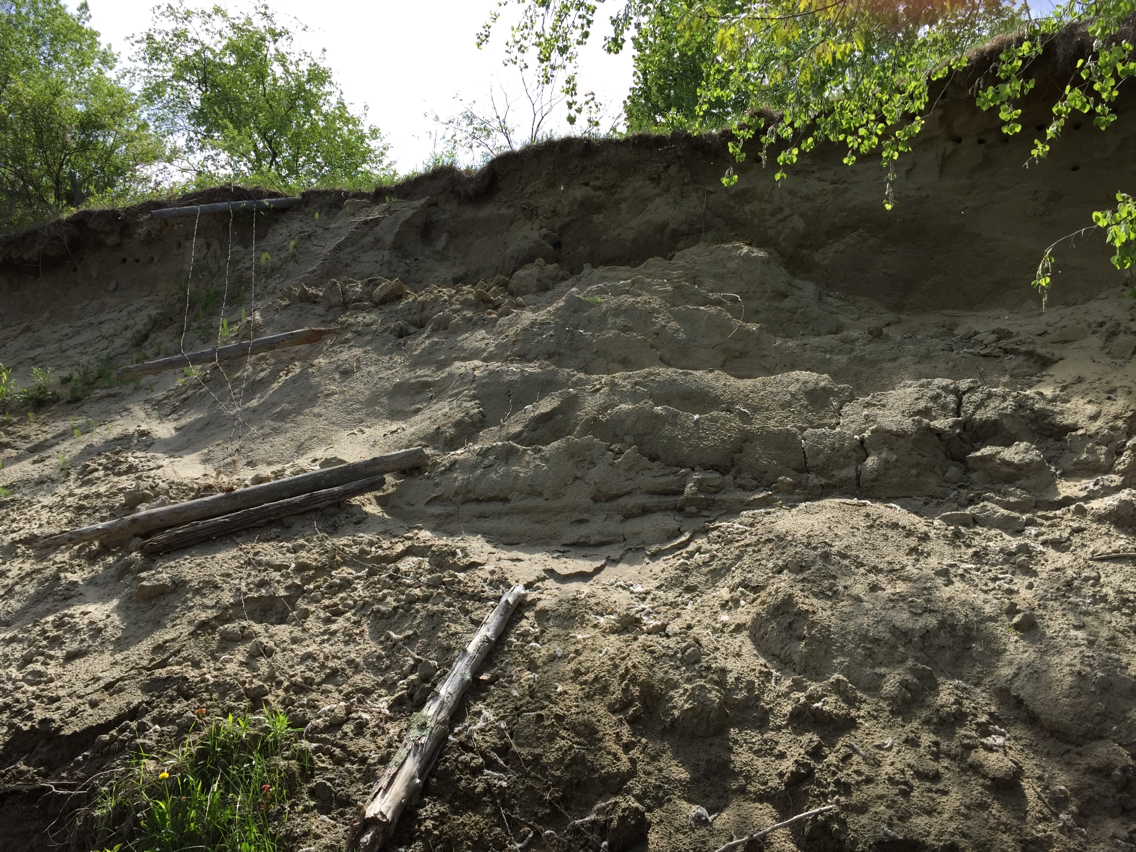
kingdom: Animalia
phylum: Chordata
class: Aves
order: Passeriformes
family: Hirundinidae
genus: Riparia
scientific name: Riparia riparia
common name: Sand martin
